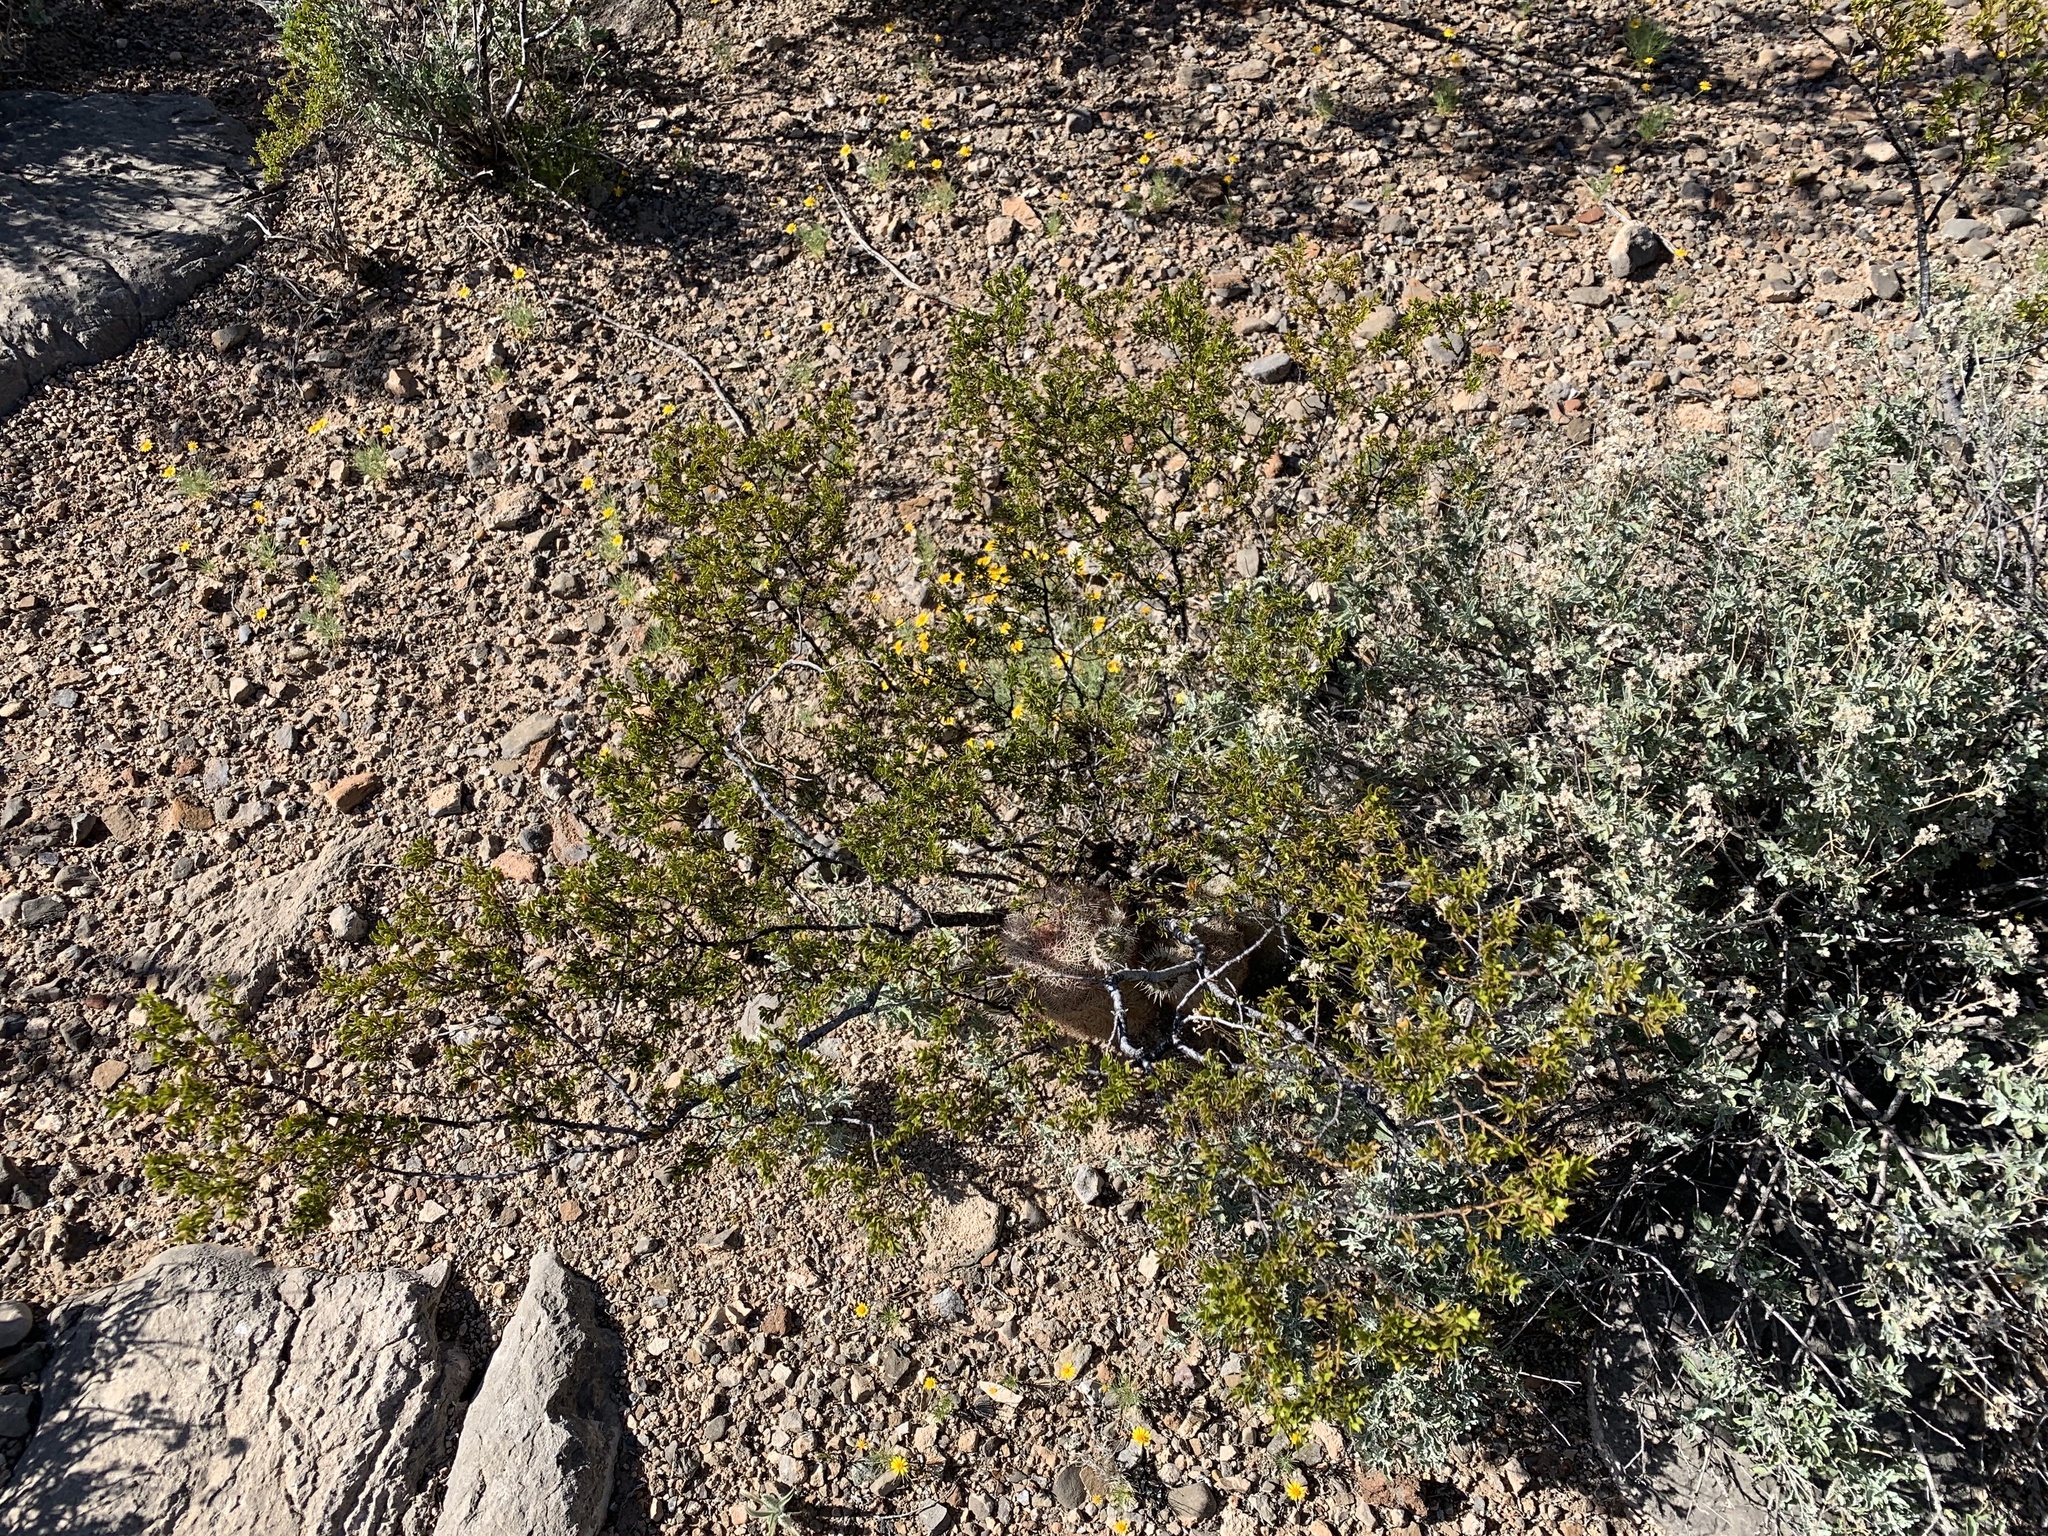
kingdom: Plantae
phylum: Tracheophyta
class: Magnoliopsida
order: Zygophyllales
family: Zygophyllaceae
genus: Larrea
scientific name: Larrea tridentata
